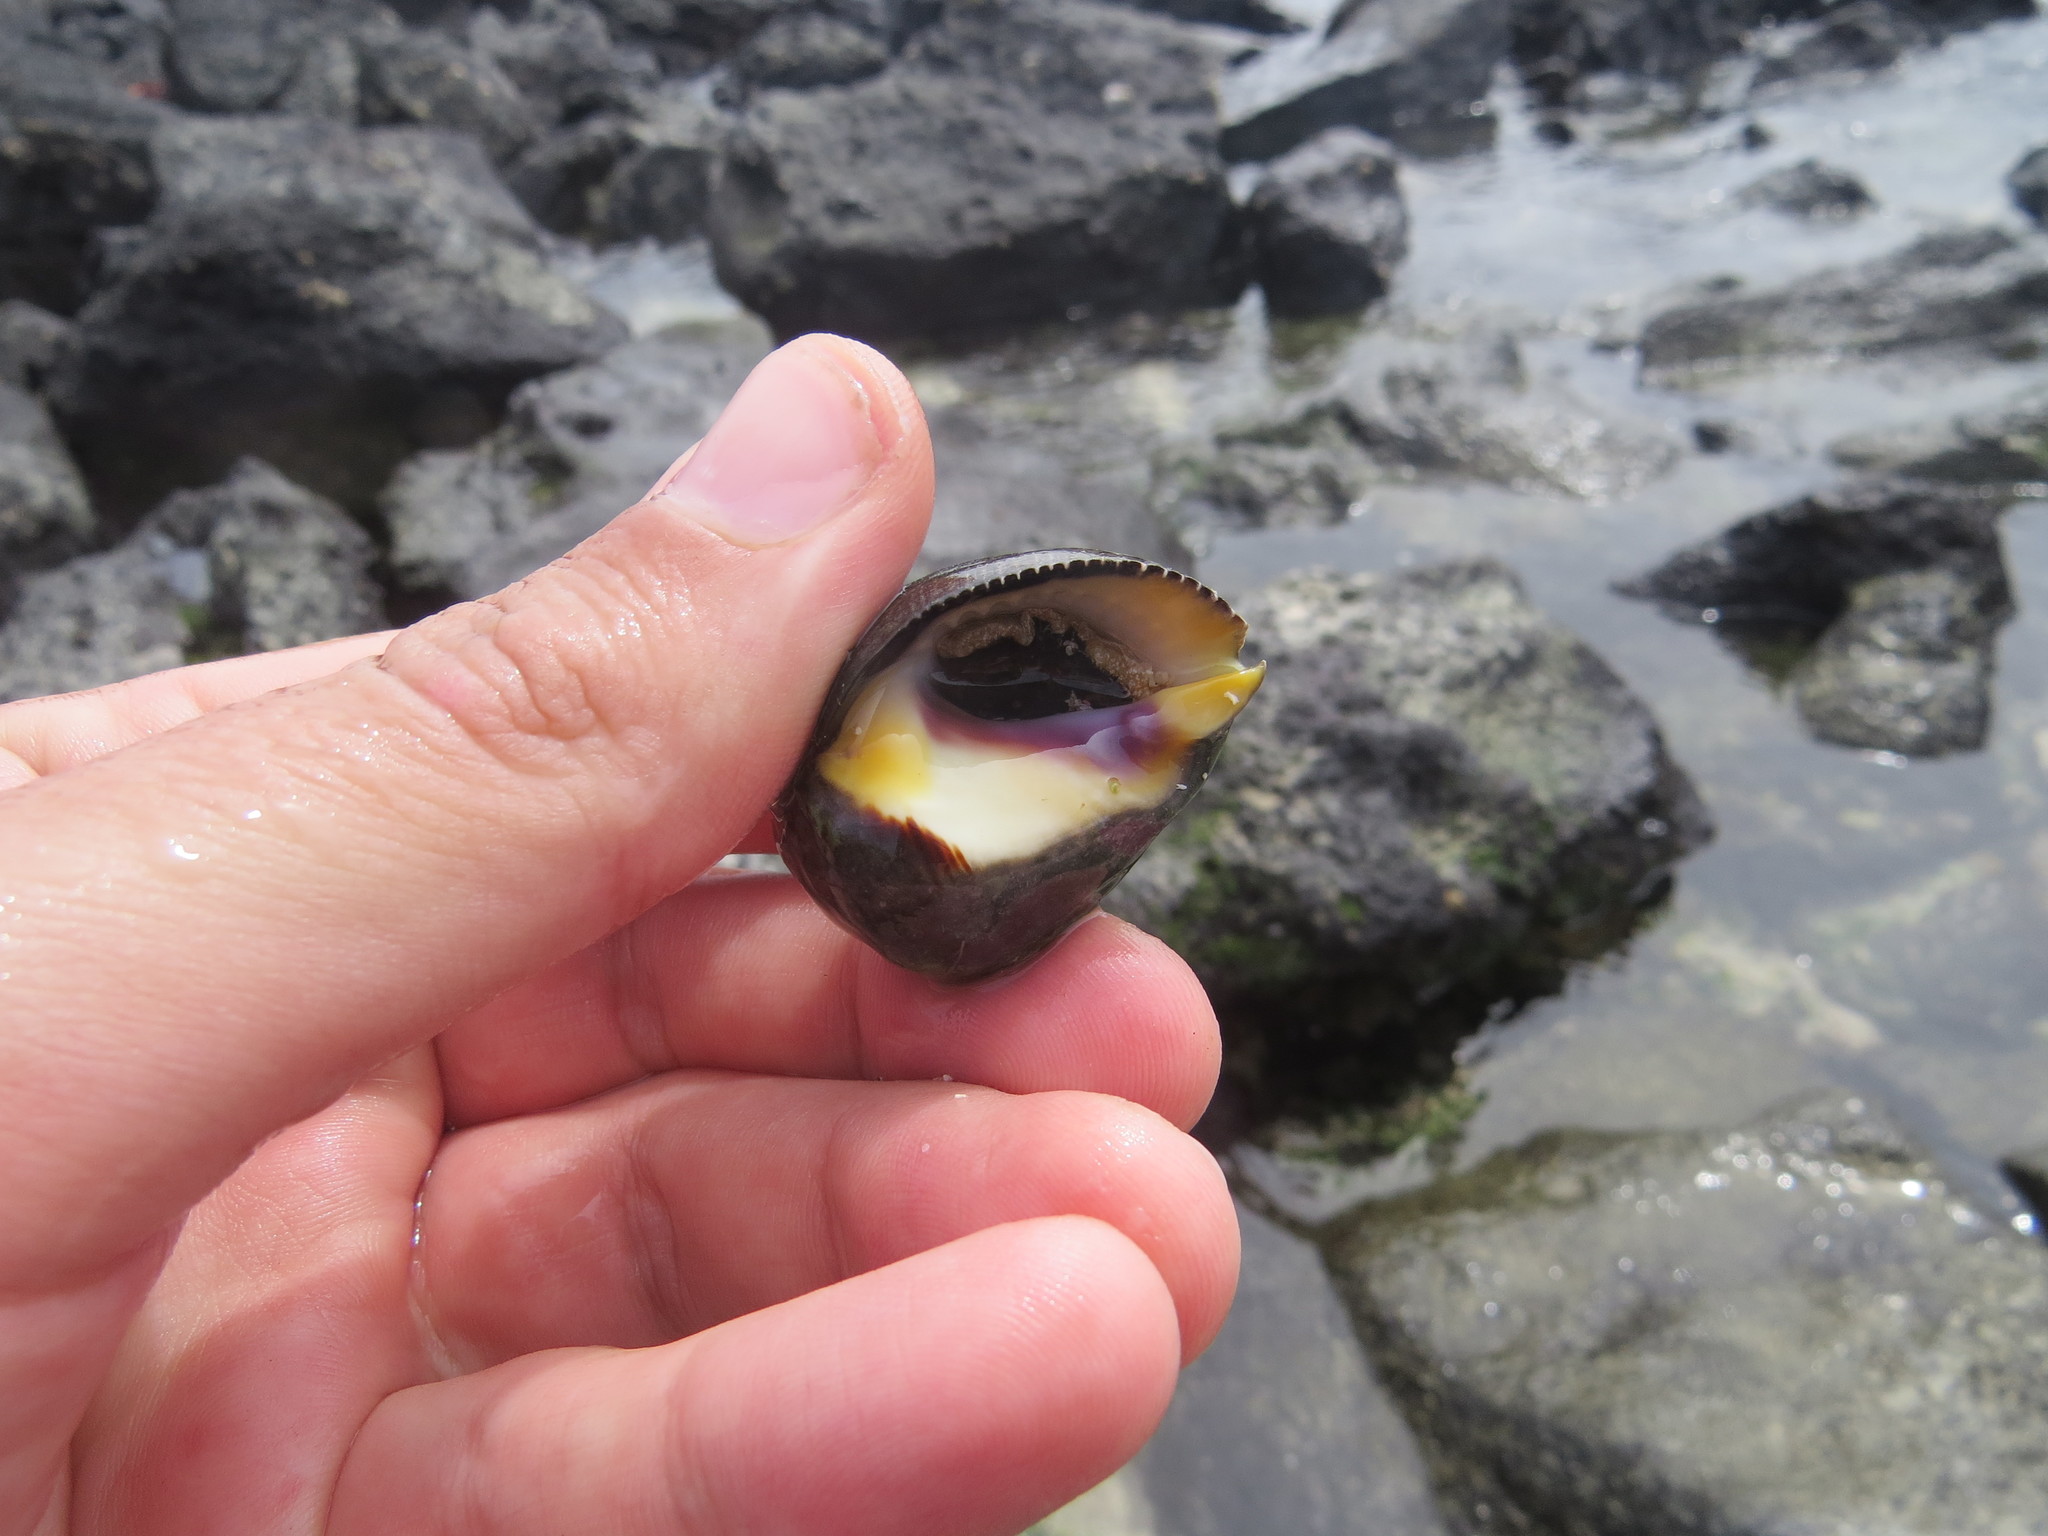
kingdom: Animalia
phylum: Mollusca
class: Gastropoda
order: Neogastropoda
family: Muricidae
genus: Vasula
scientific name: Vasula melones
